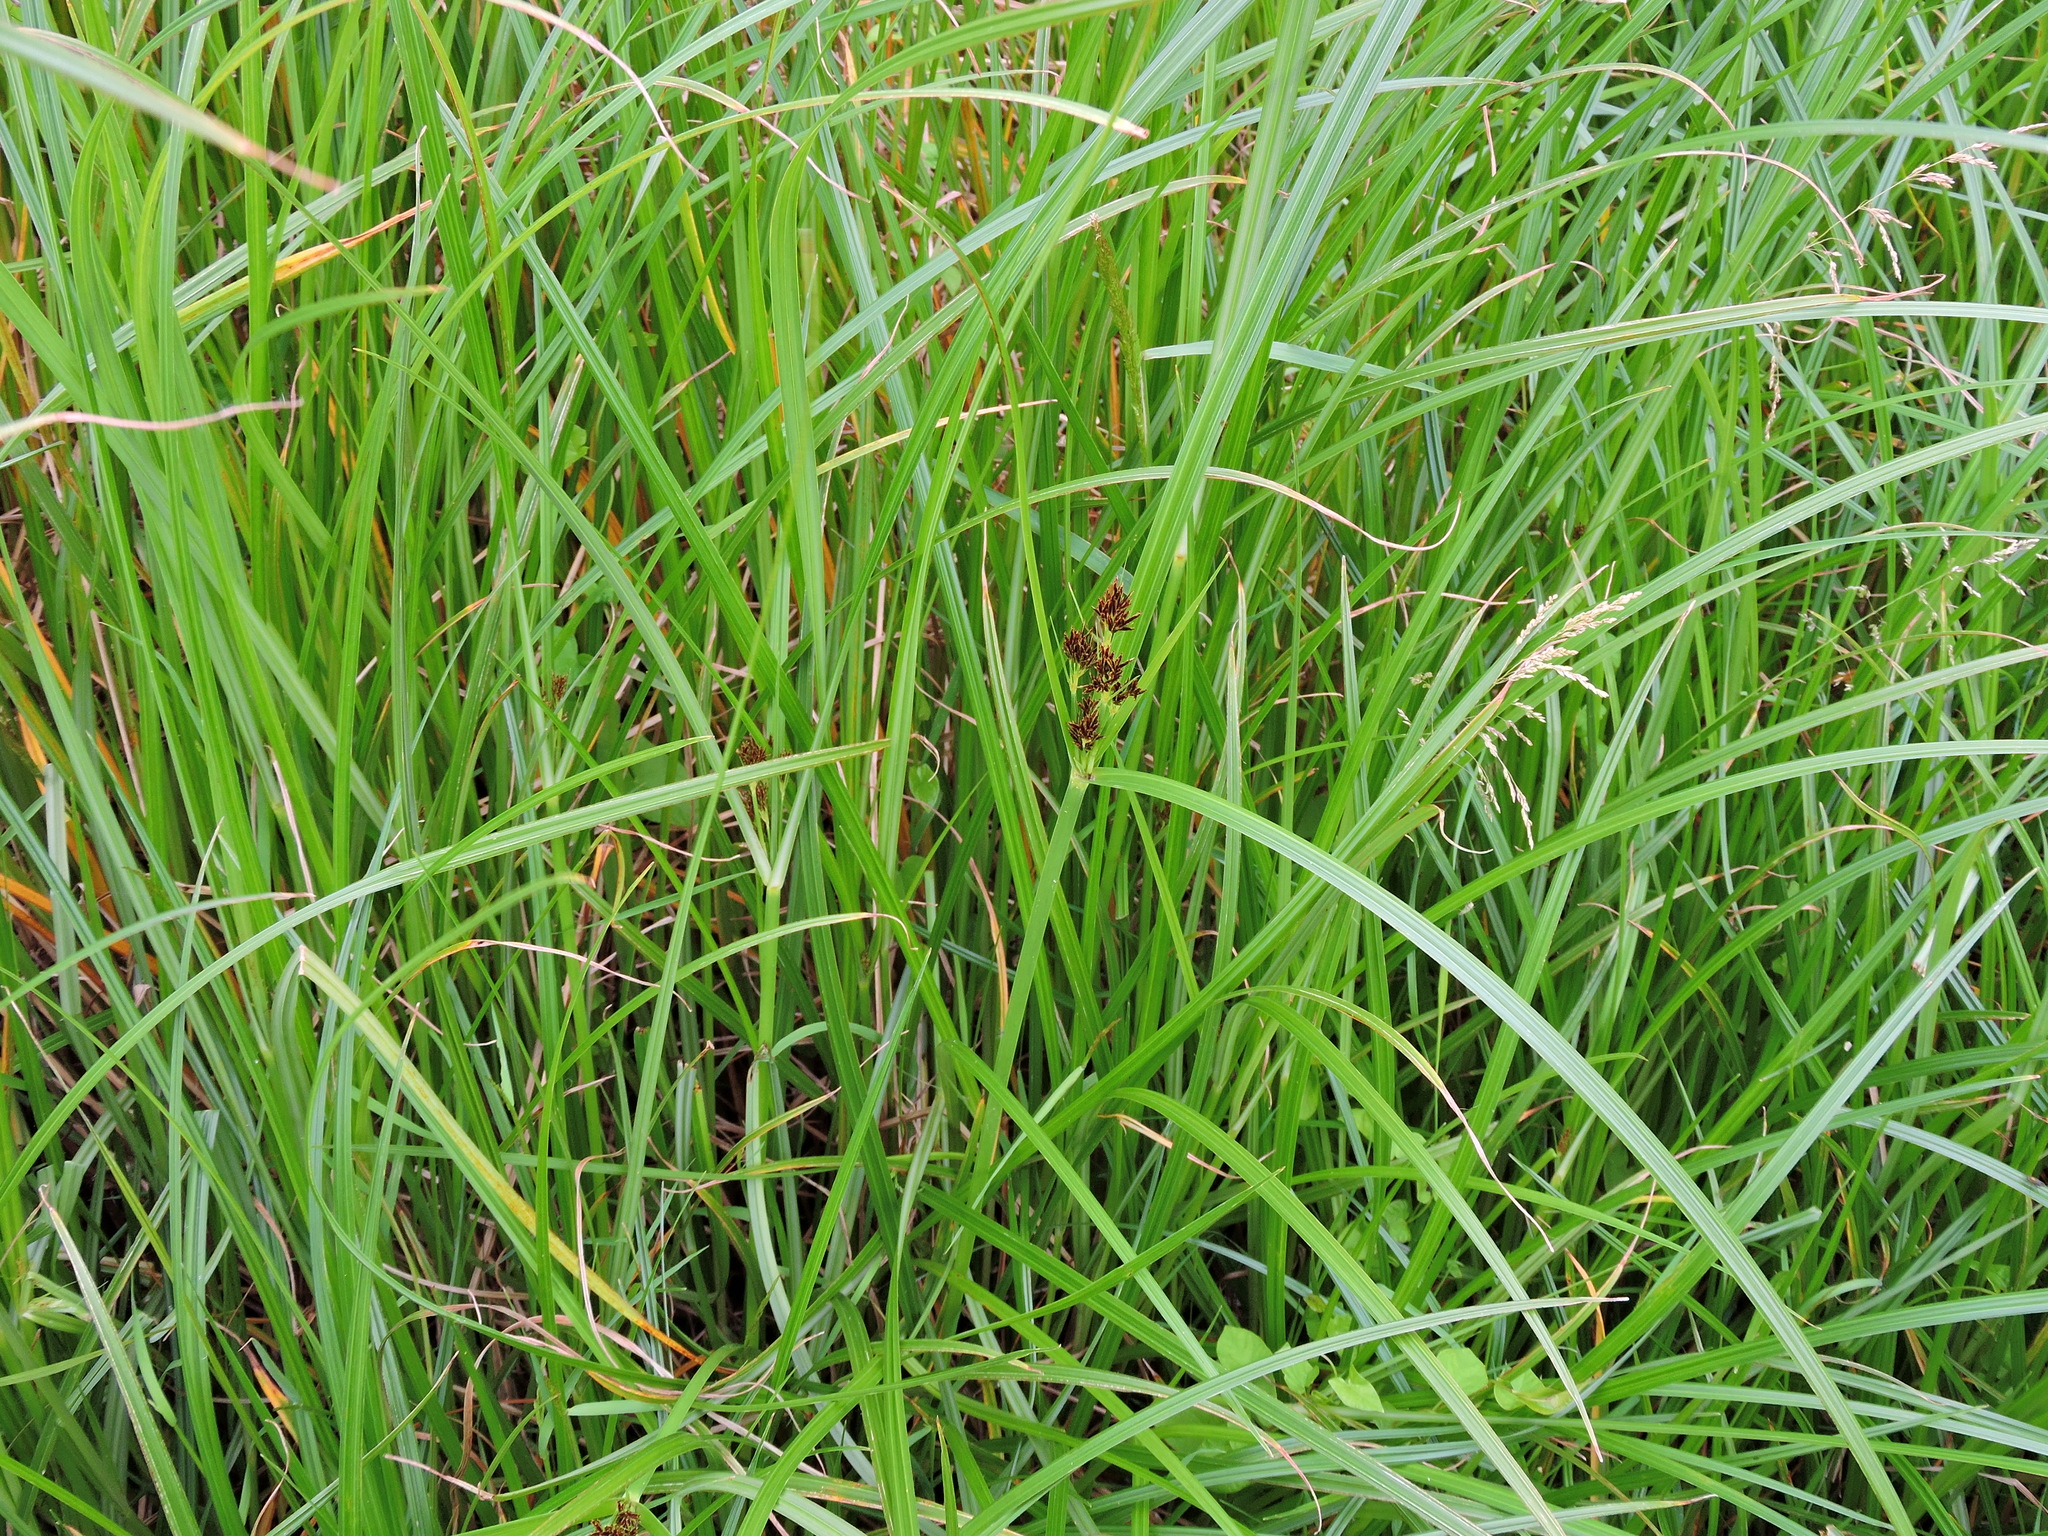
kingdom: Plantae
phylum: Tracheophyta
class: Liliopsida
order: Poales
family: Cyperaceae
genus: Cyperus
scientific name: Cyperus longus
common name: Galingale
